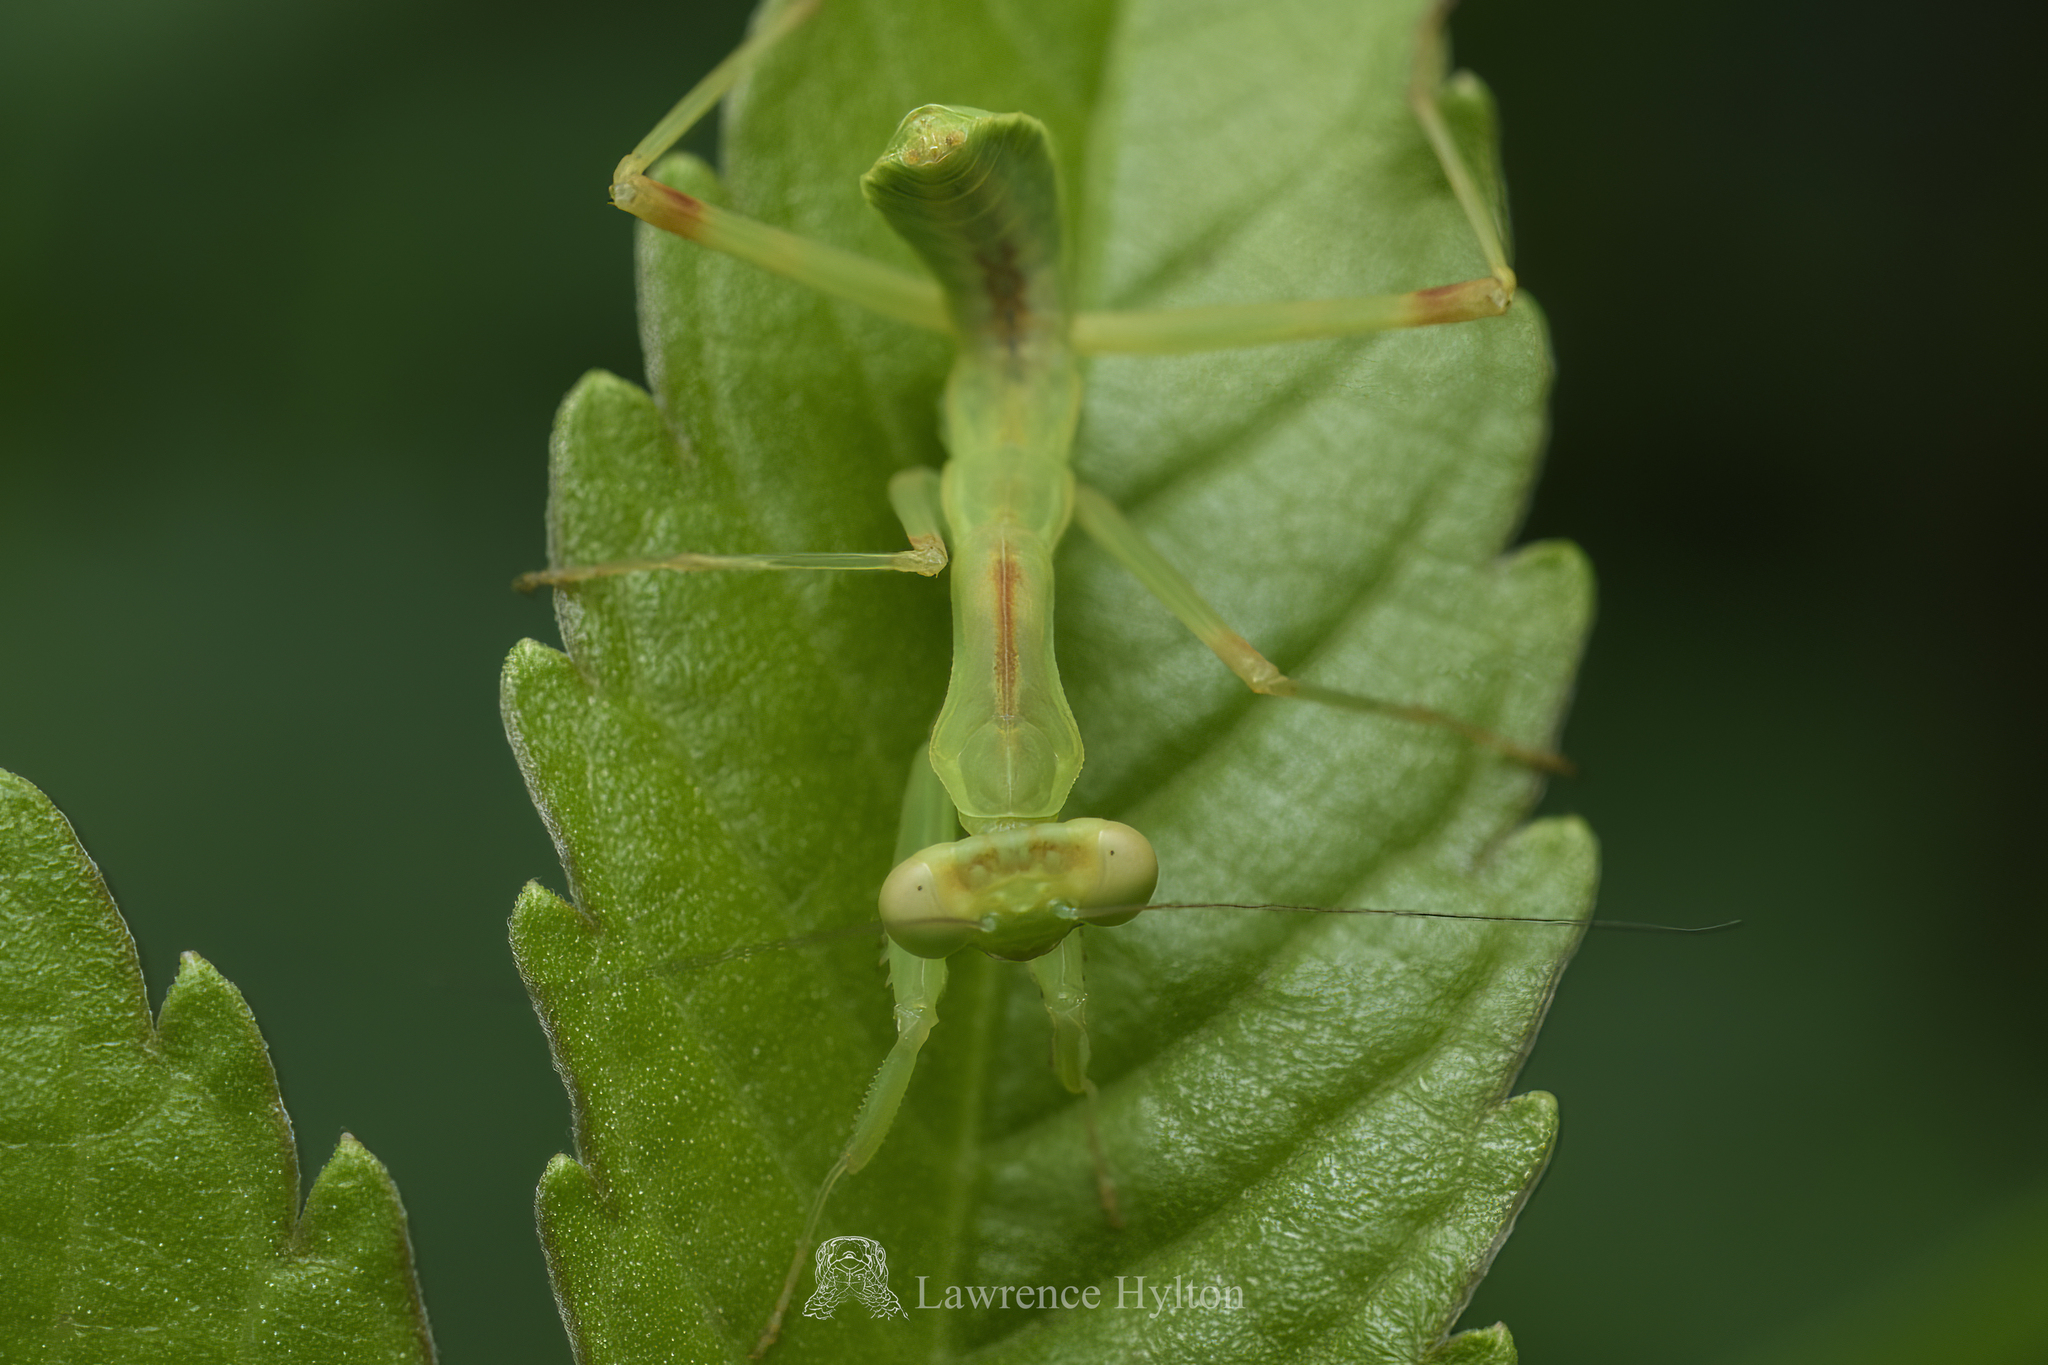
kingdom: Animalia
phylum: Arthropoda
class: Insecta
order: Mantodea
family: Mantidae
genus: Hierodula
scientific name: Hierodula patellifera
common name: Asian mantis
